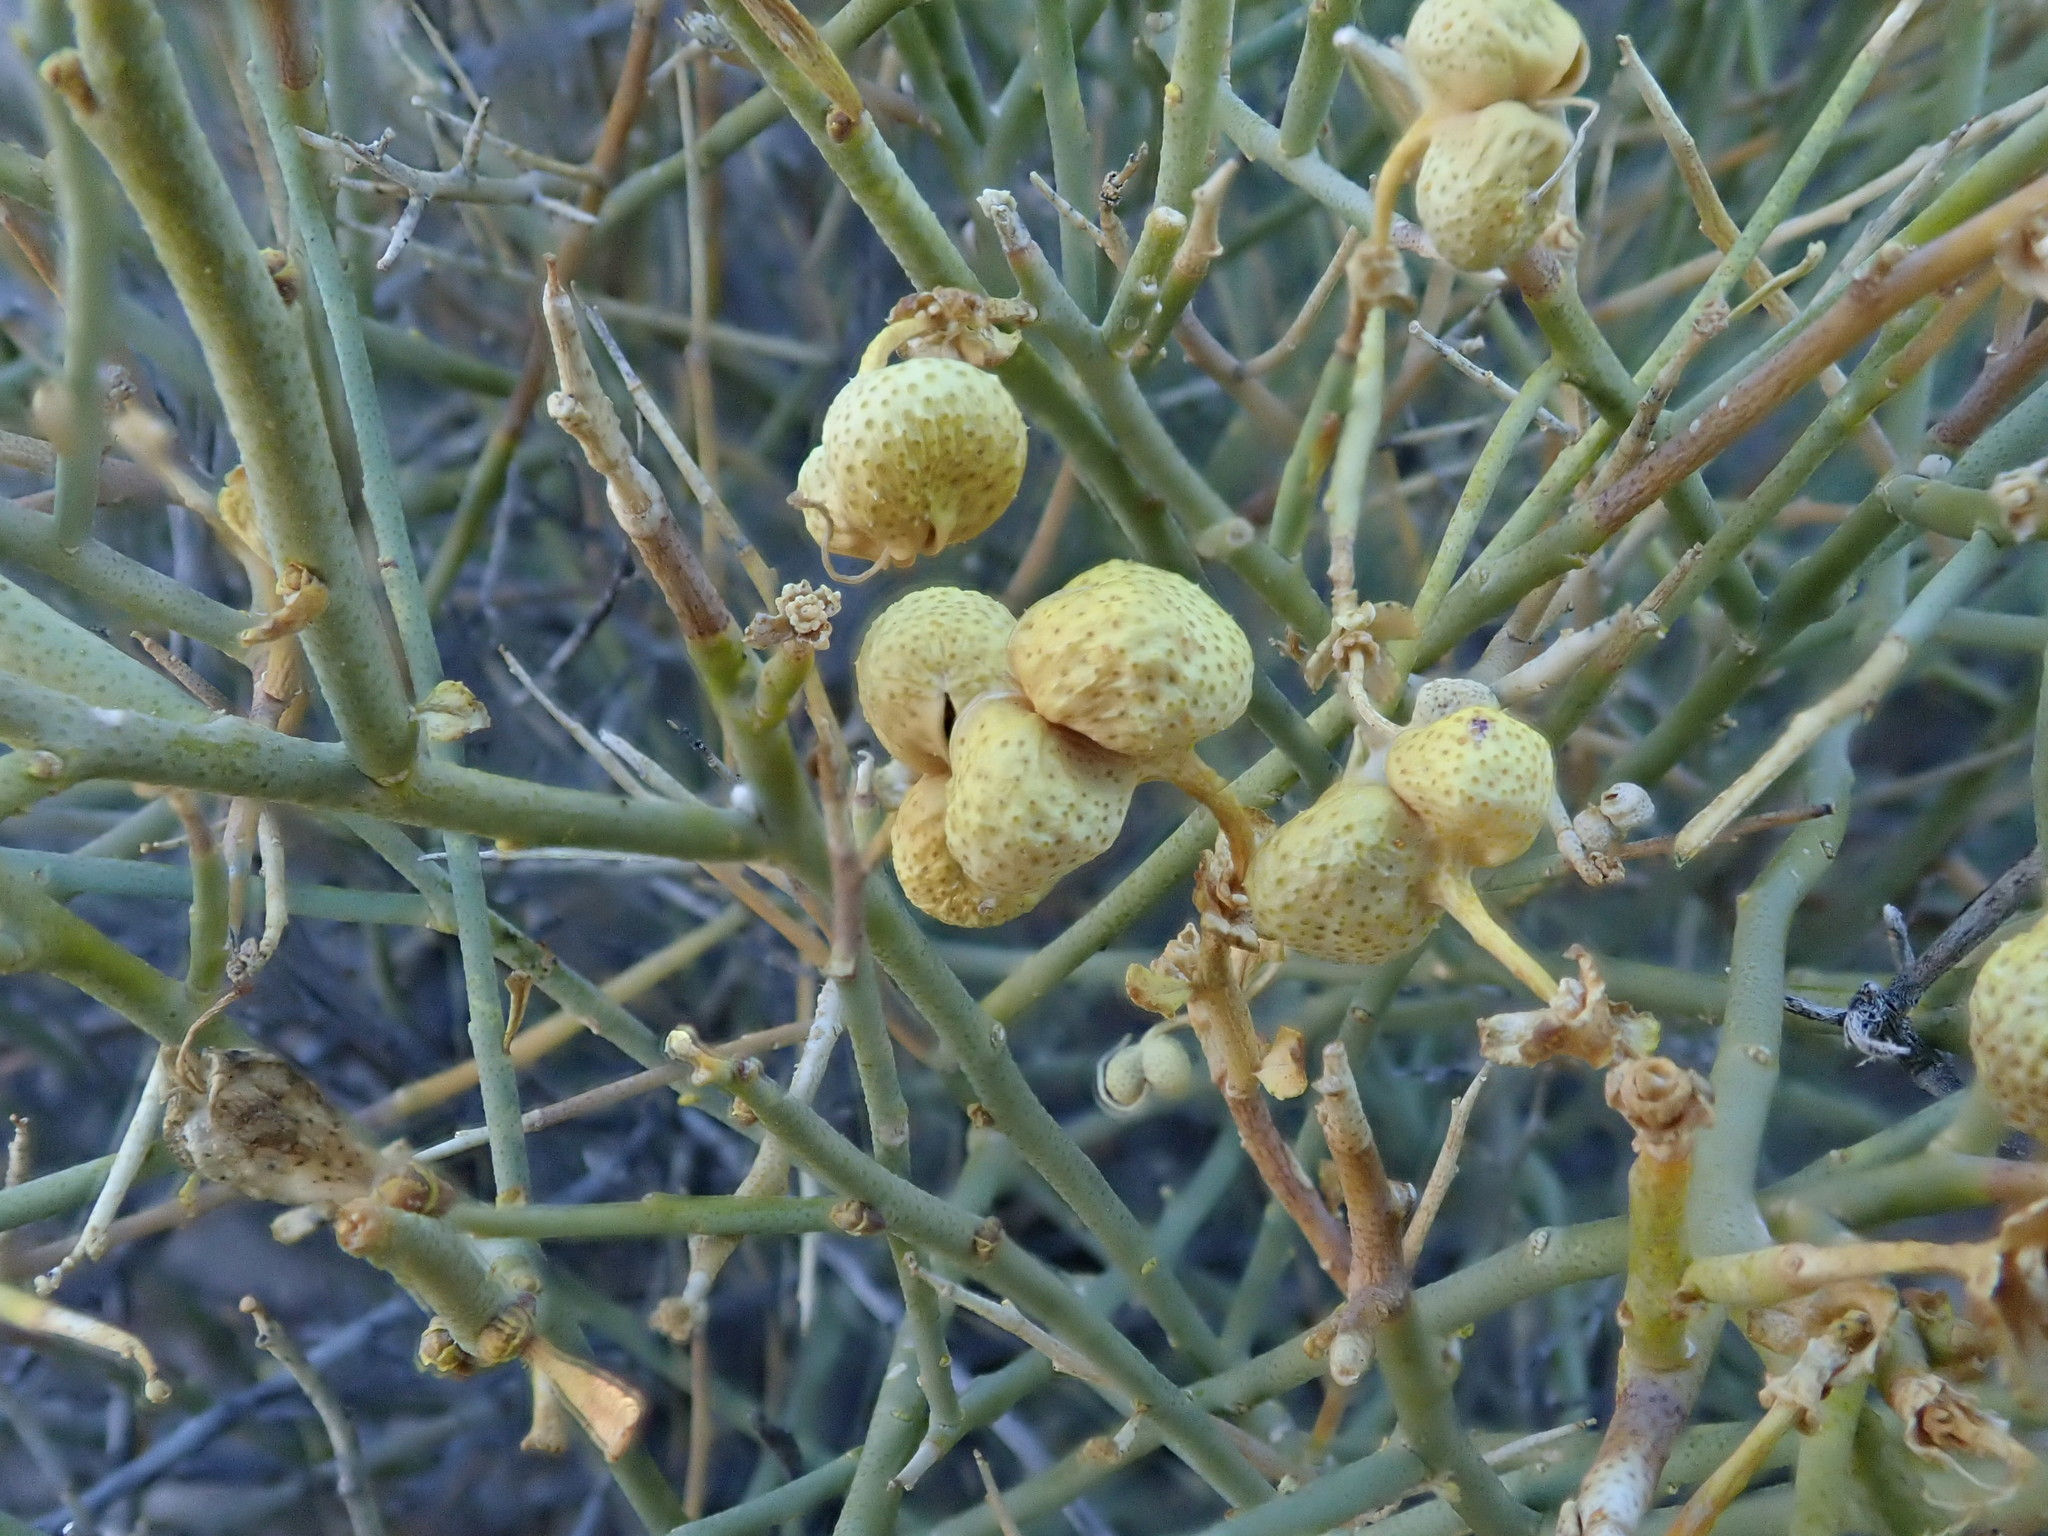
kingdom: Plantae
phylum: Tracheophyta
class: Magnoliopsida
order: Sapindales
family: Rutaceae
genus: Thamnosma
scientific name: Thamnosma montana
